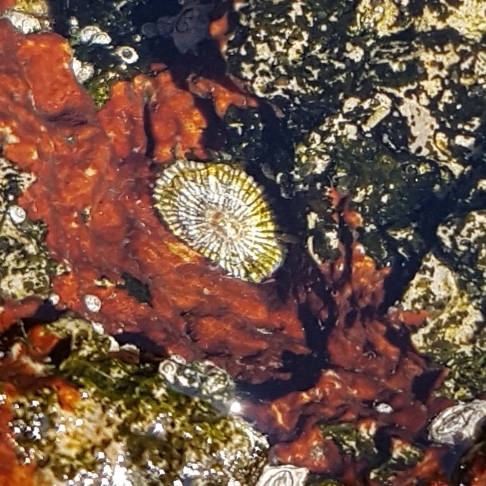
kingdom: Animalia
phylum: Mollusca
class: Gastropoda
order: Siphonariida
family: Siphonariidae
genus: Siphonaria
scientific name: Siphonaria pectinata
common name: Striped false limpet
